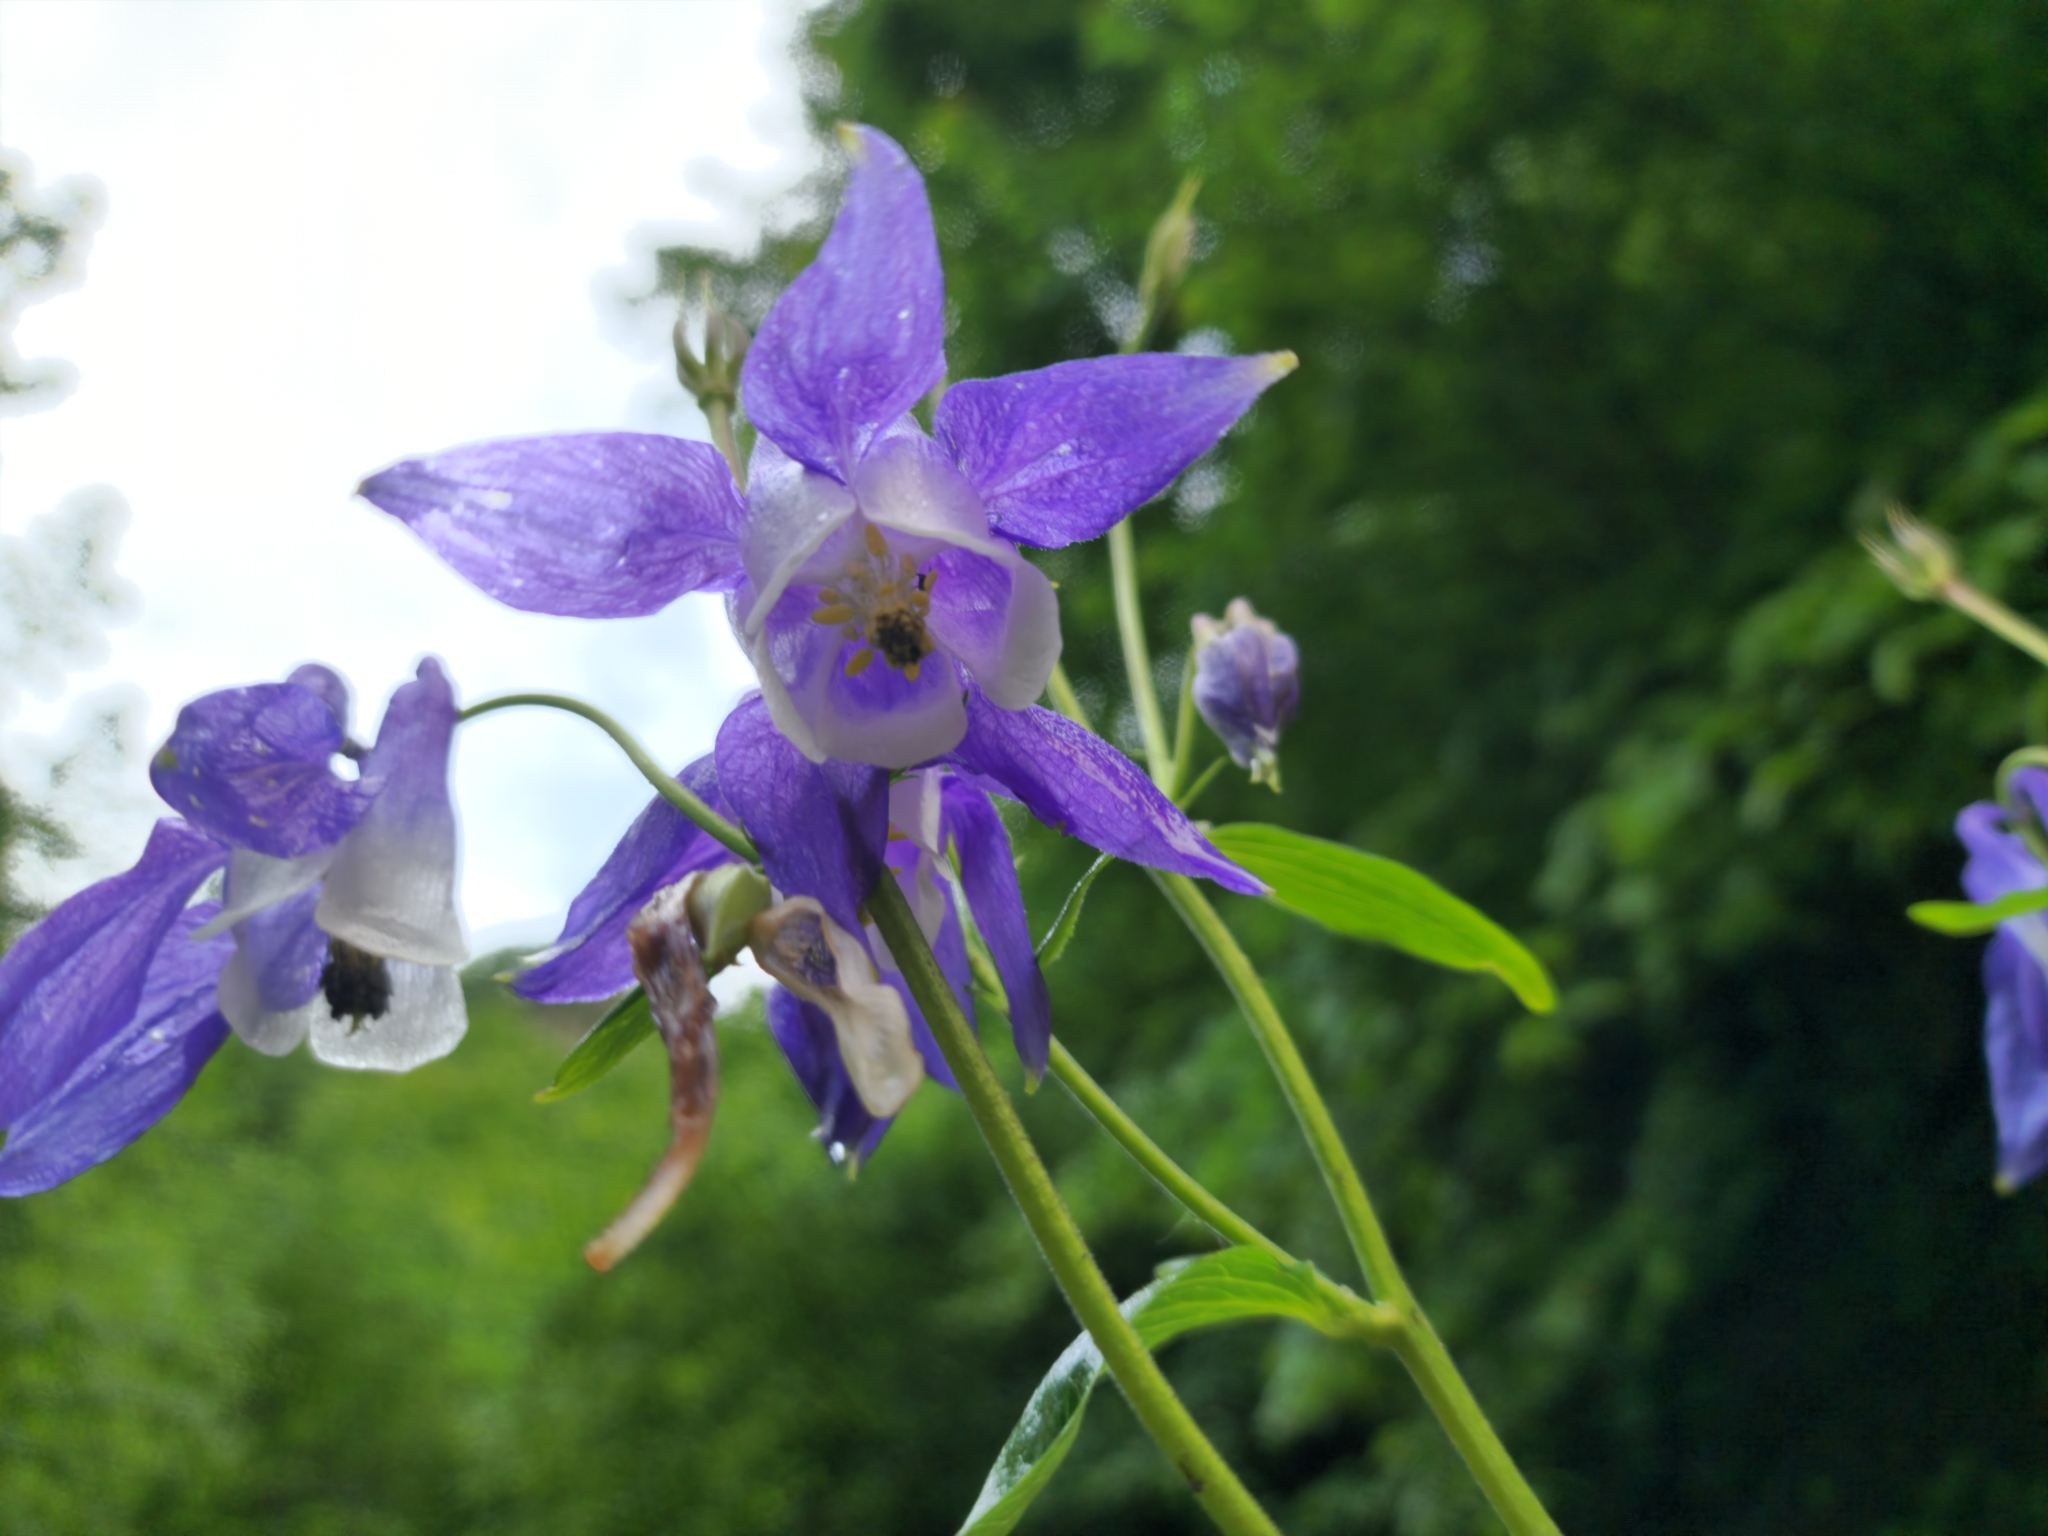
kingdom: Plantae
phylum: Tracheophyta
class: Magnoliopsida
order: Ranunculales
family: Ranunculaceae
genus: Aquilegia
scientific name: Aquilegia olympica
